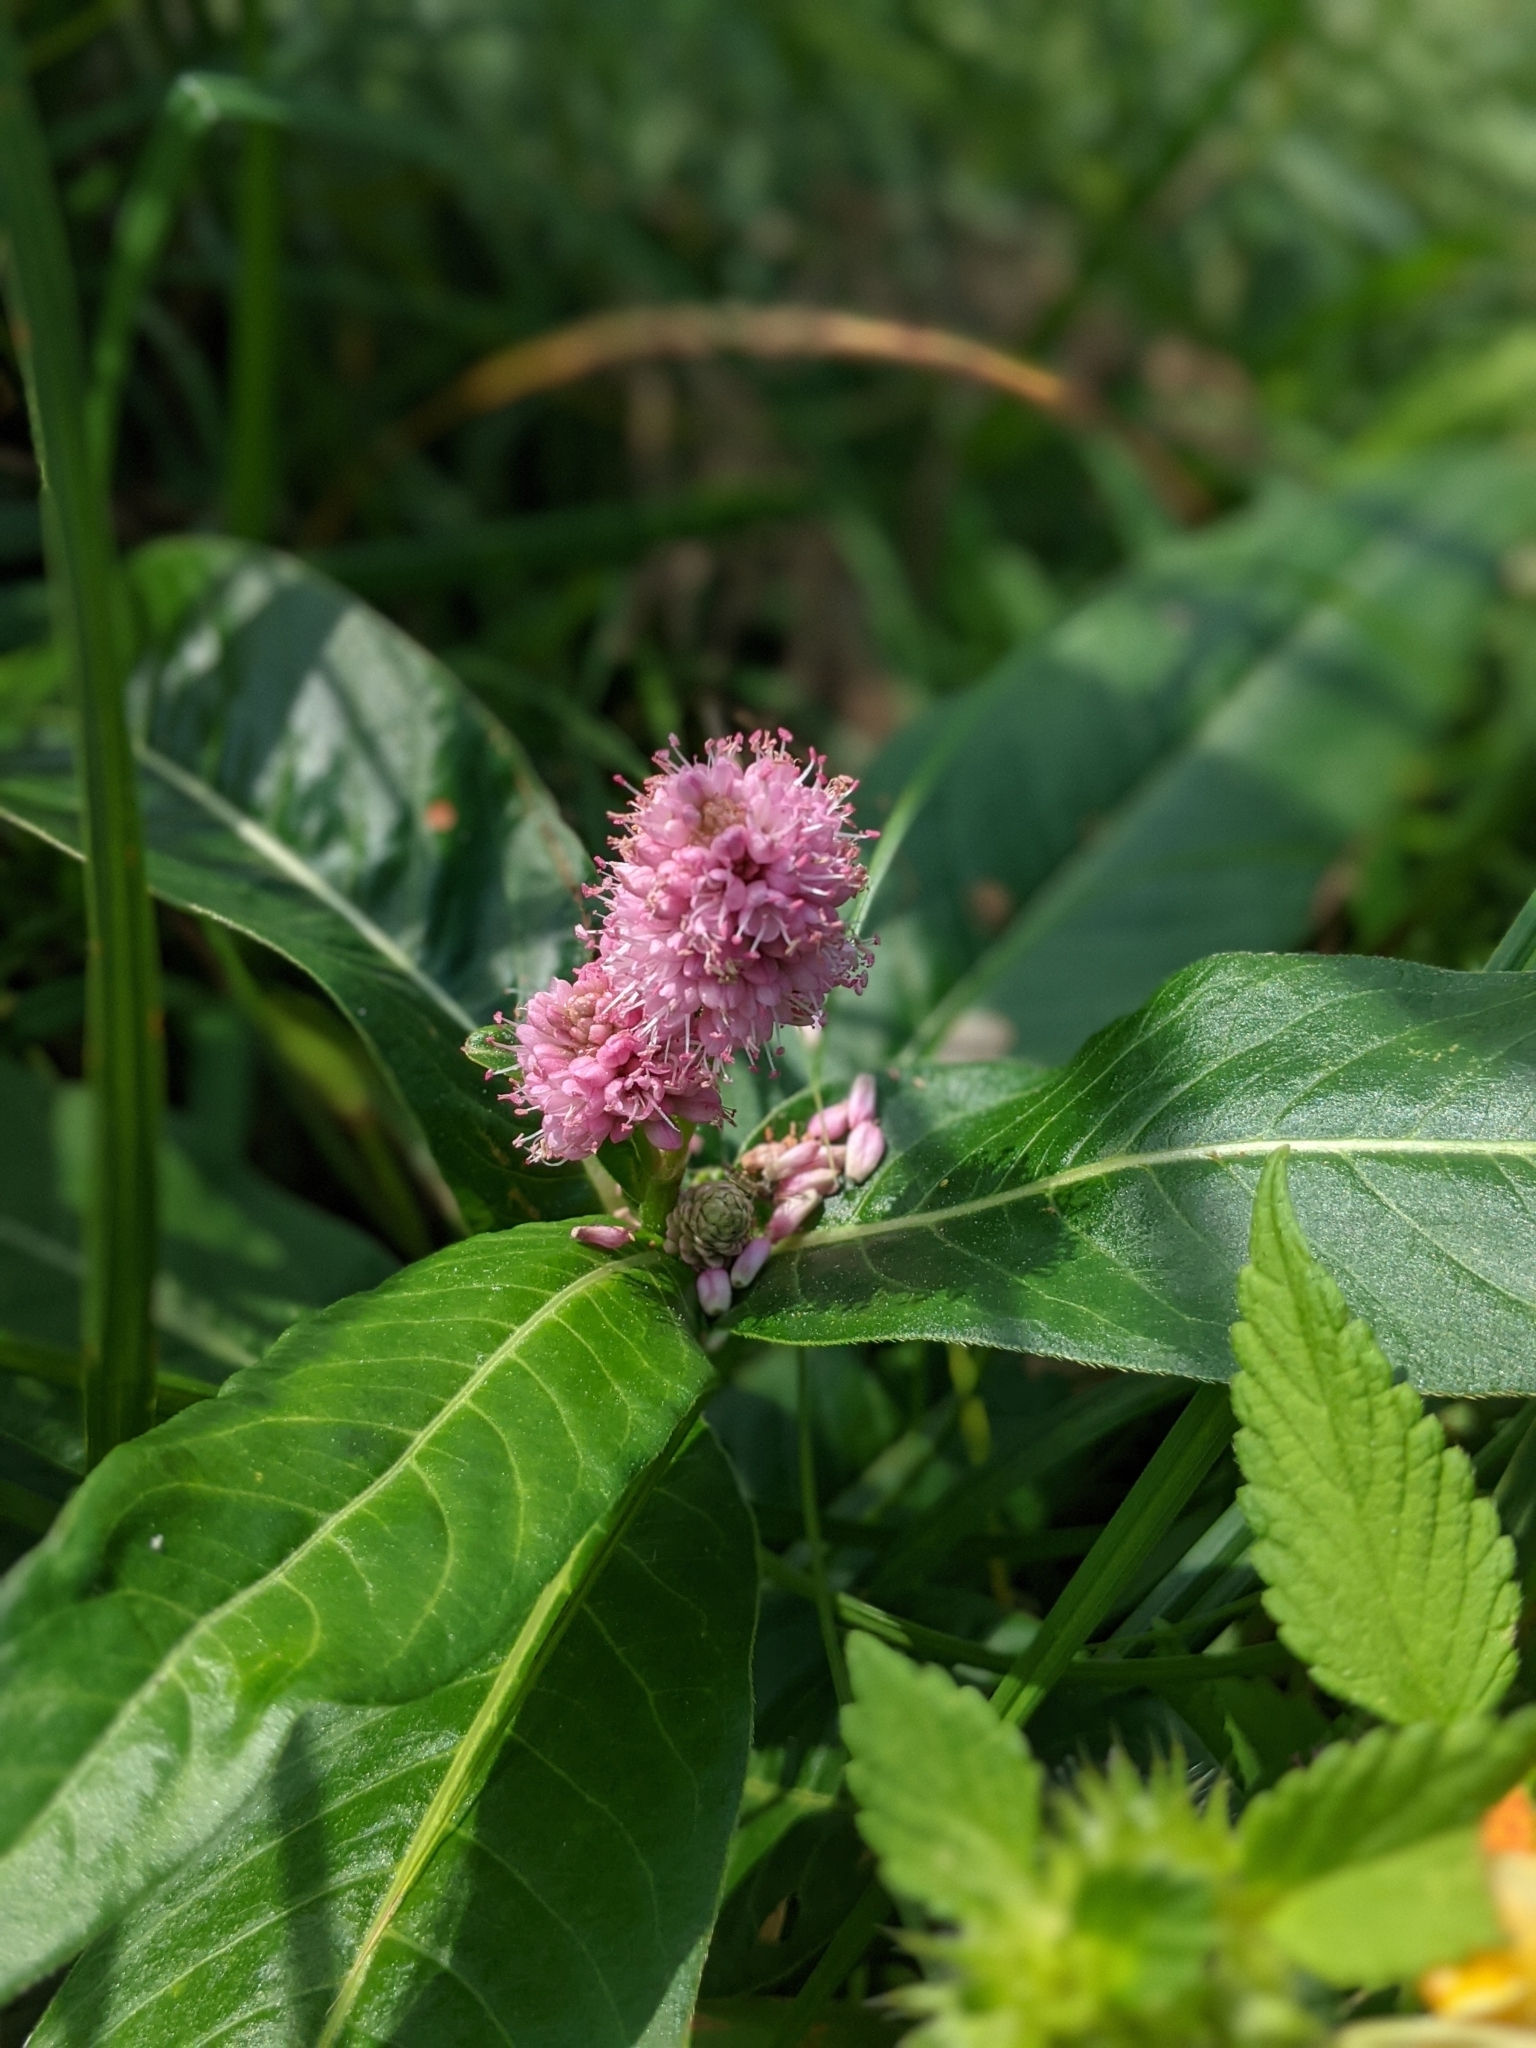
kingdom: Plantae
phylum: Tracheophyta
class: Magnoliopsida
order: Caryophyllales
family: Polygonaceae
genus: Persicaria
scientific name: Persicaria amphibia
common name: Amphibious bistort
